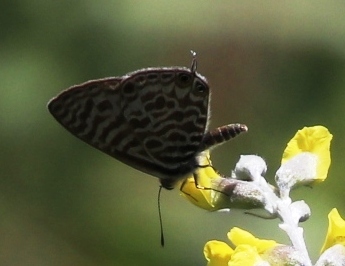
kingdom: Plantae
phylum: Tracheophyta
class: Magnoliopsida
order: Fabales
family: Fabaceae
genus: Pearsonia
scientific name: Pearsonia sessilifolia
